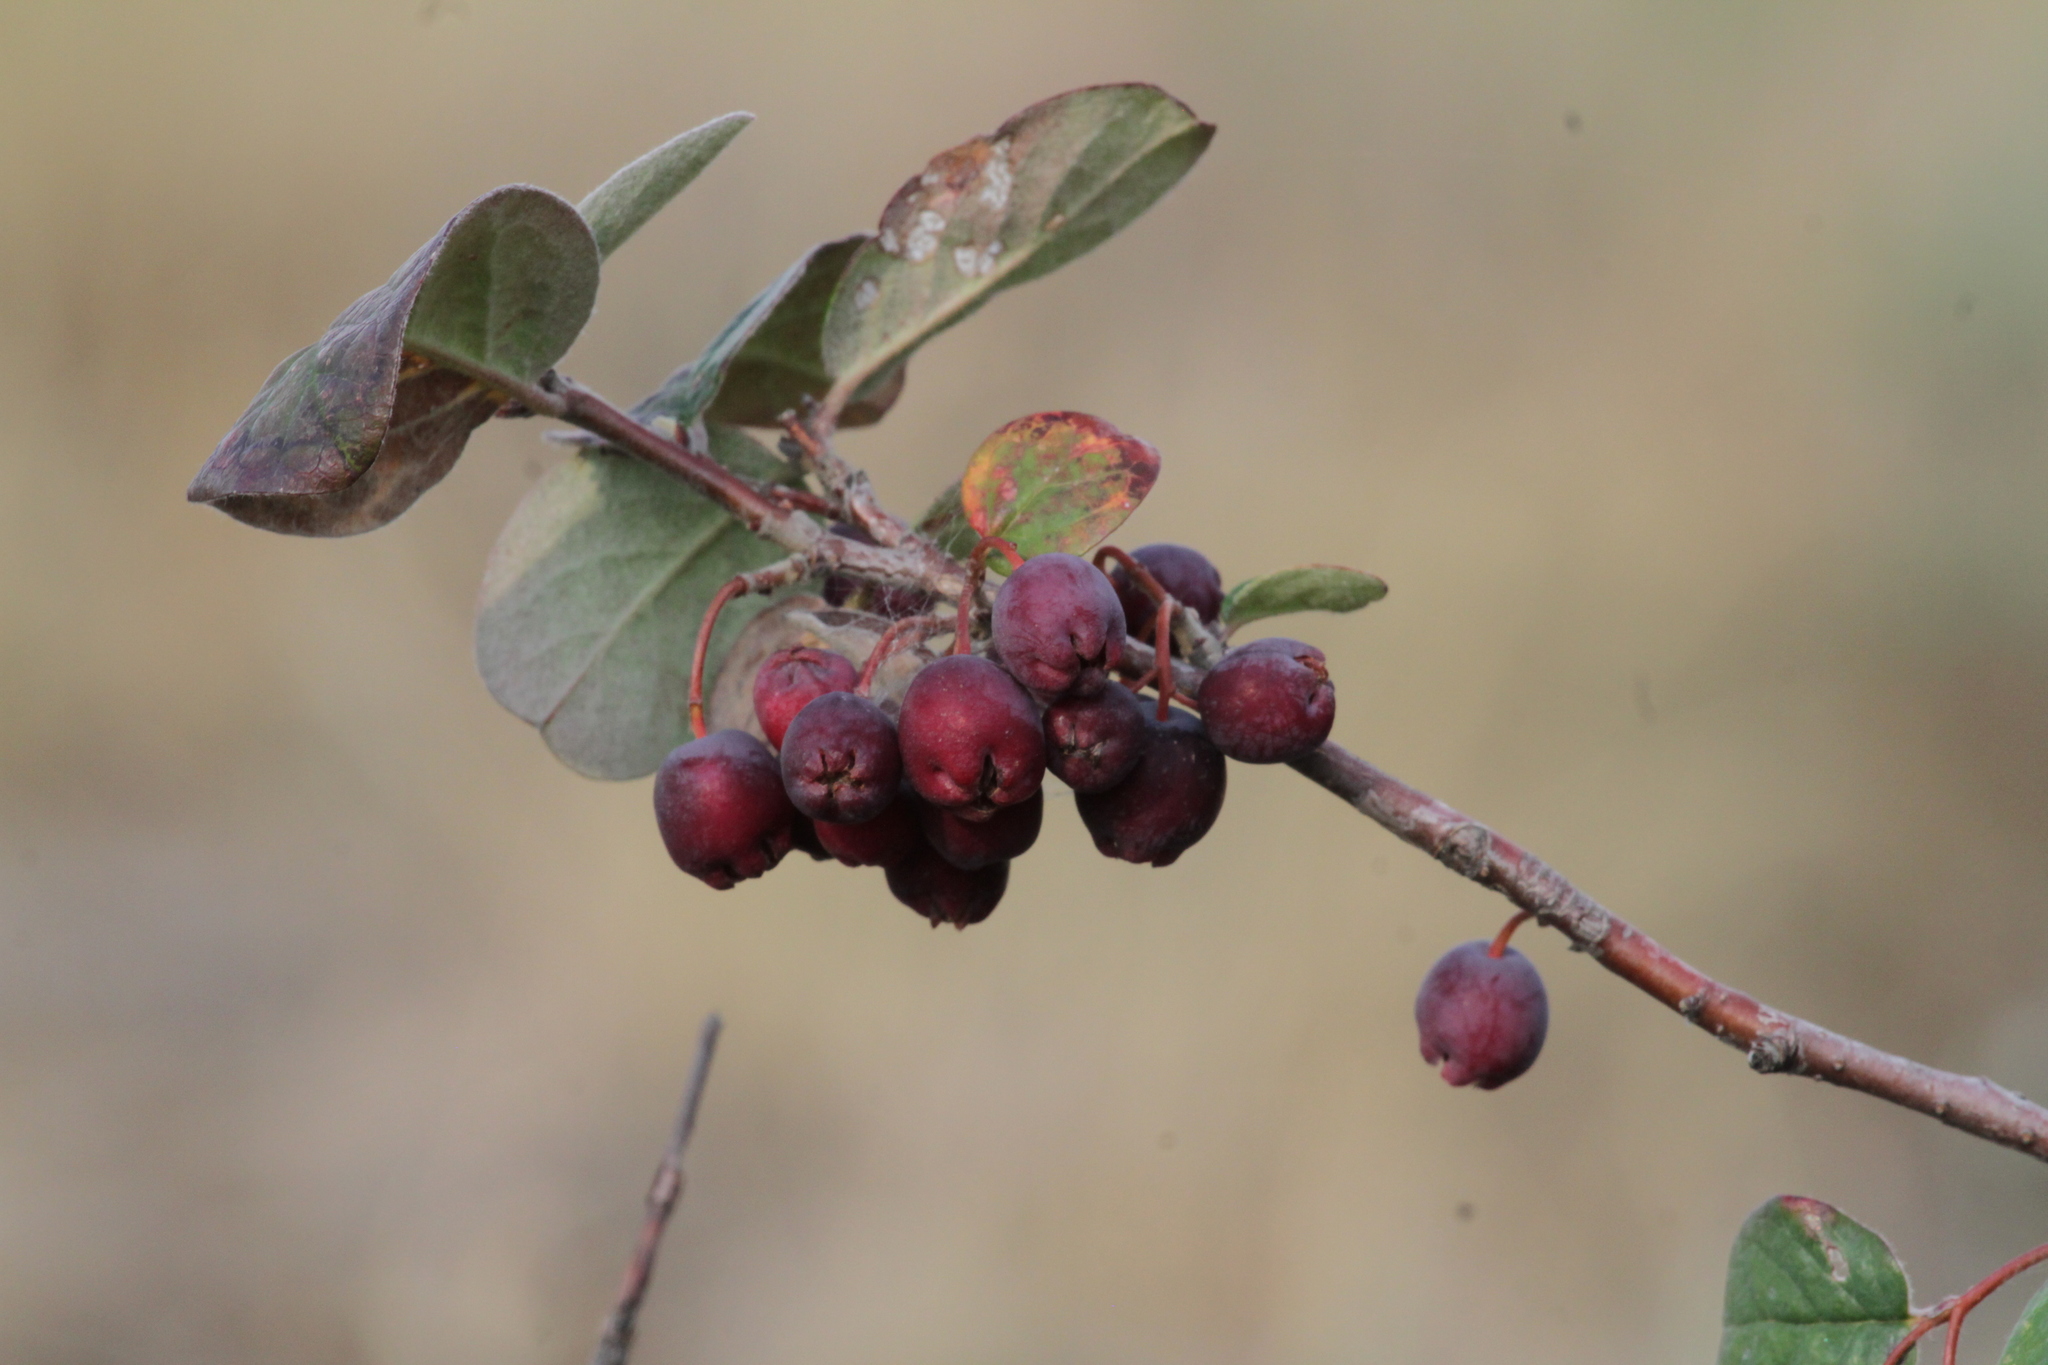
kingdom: Plantae
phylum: Tracheophyta
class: Magnoliopsida
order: Rosales
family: Rosaceae
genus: Cotoneaster
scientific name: Cotoneaster melanocarpus
